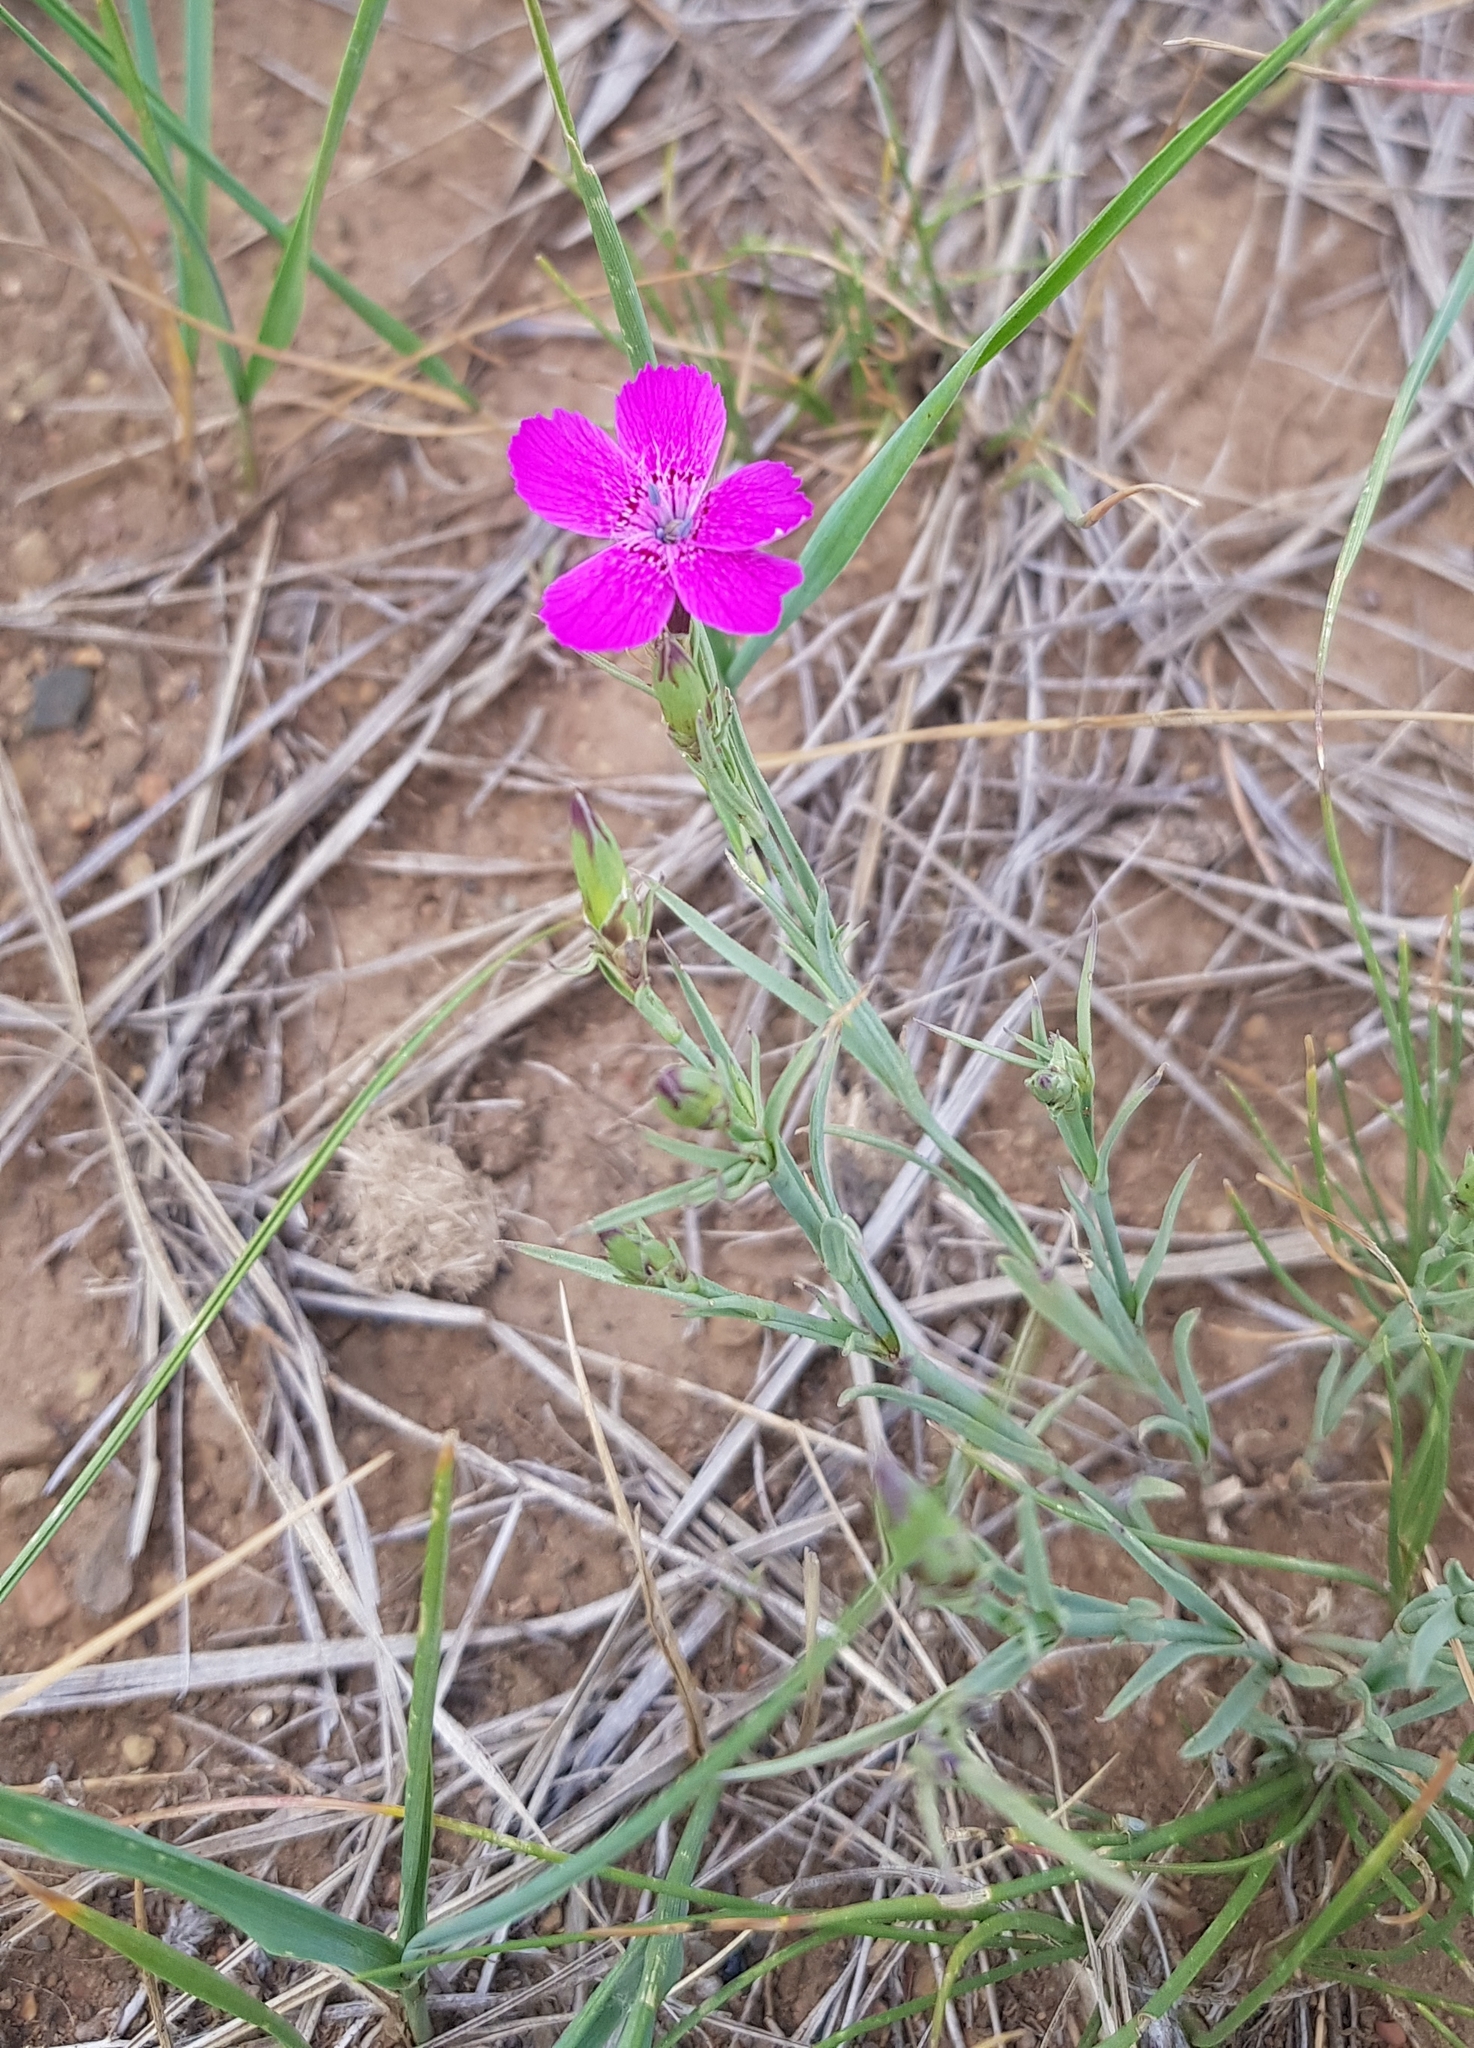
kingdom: Plantae
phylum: Tracheophyta
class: Magnoliopsida
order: Caryophyllales
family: Caryophyllaceae
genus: Dianthus
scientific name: Dianthus chinensis
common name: Rainbow pink
